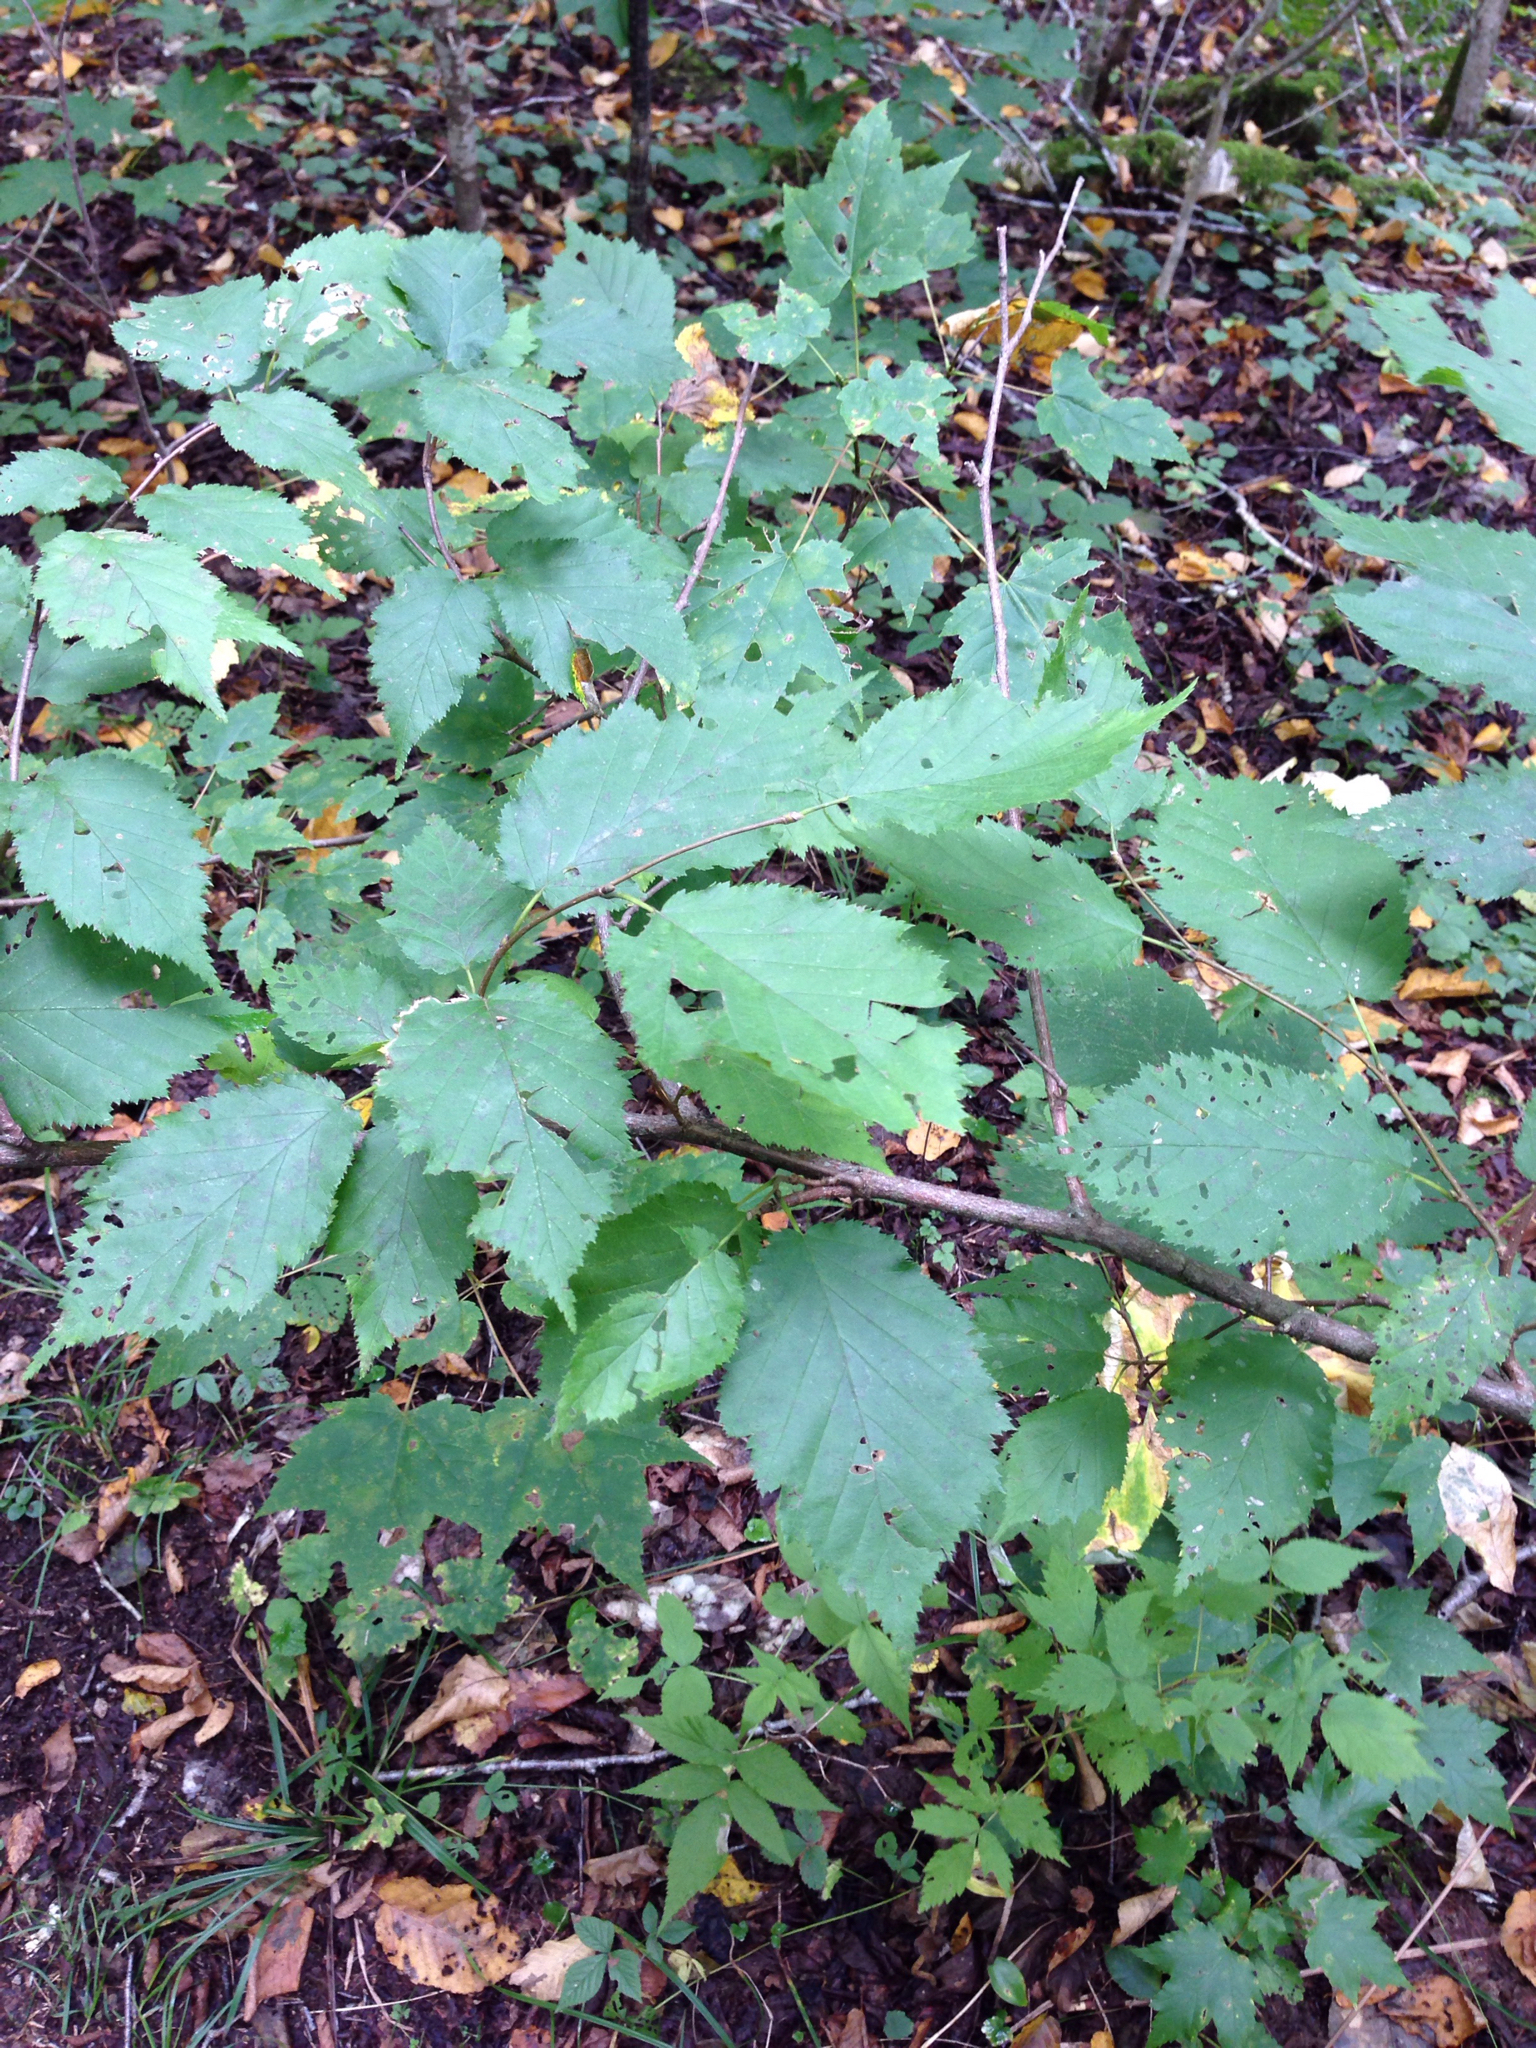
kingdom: Plantae
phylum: Tracheophyta
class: Magnoliopsida
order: Fagales
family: Betulaceae
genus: Corylus
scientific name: Corylus cornuta
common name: Beaked hazel
